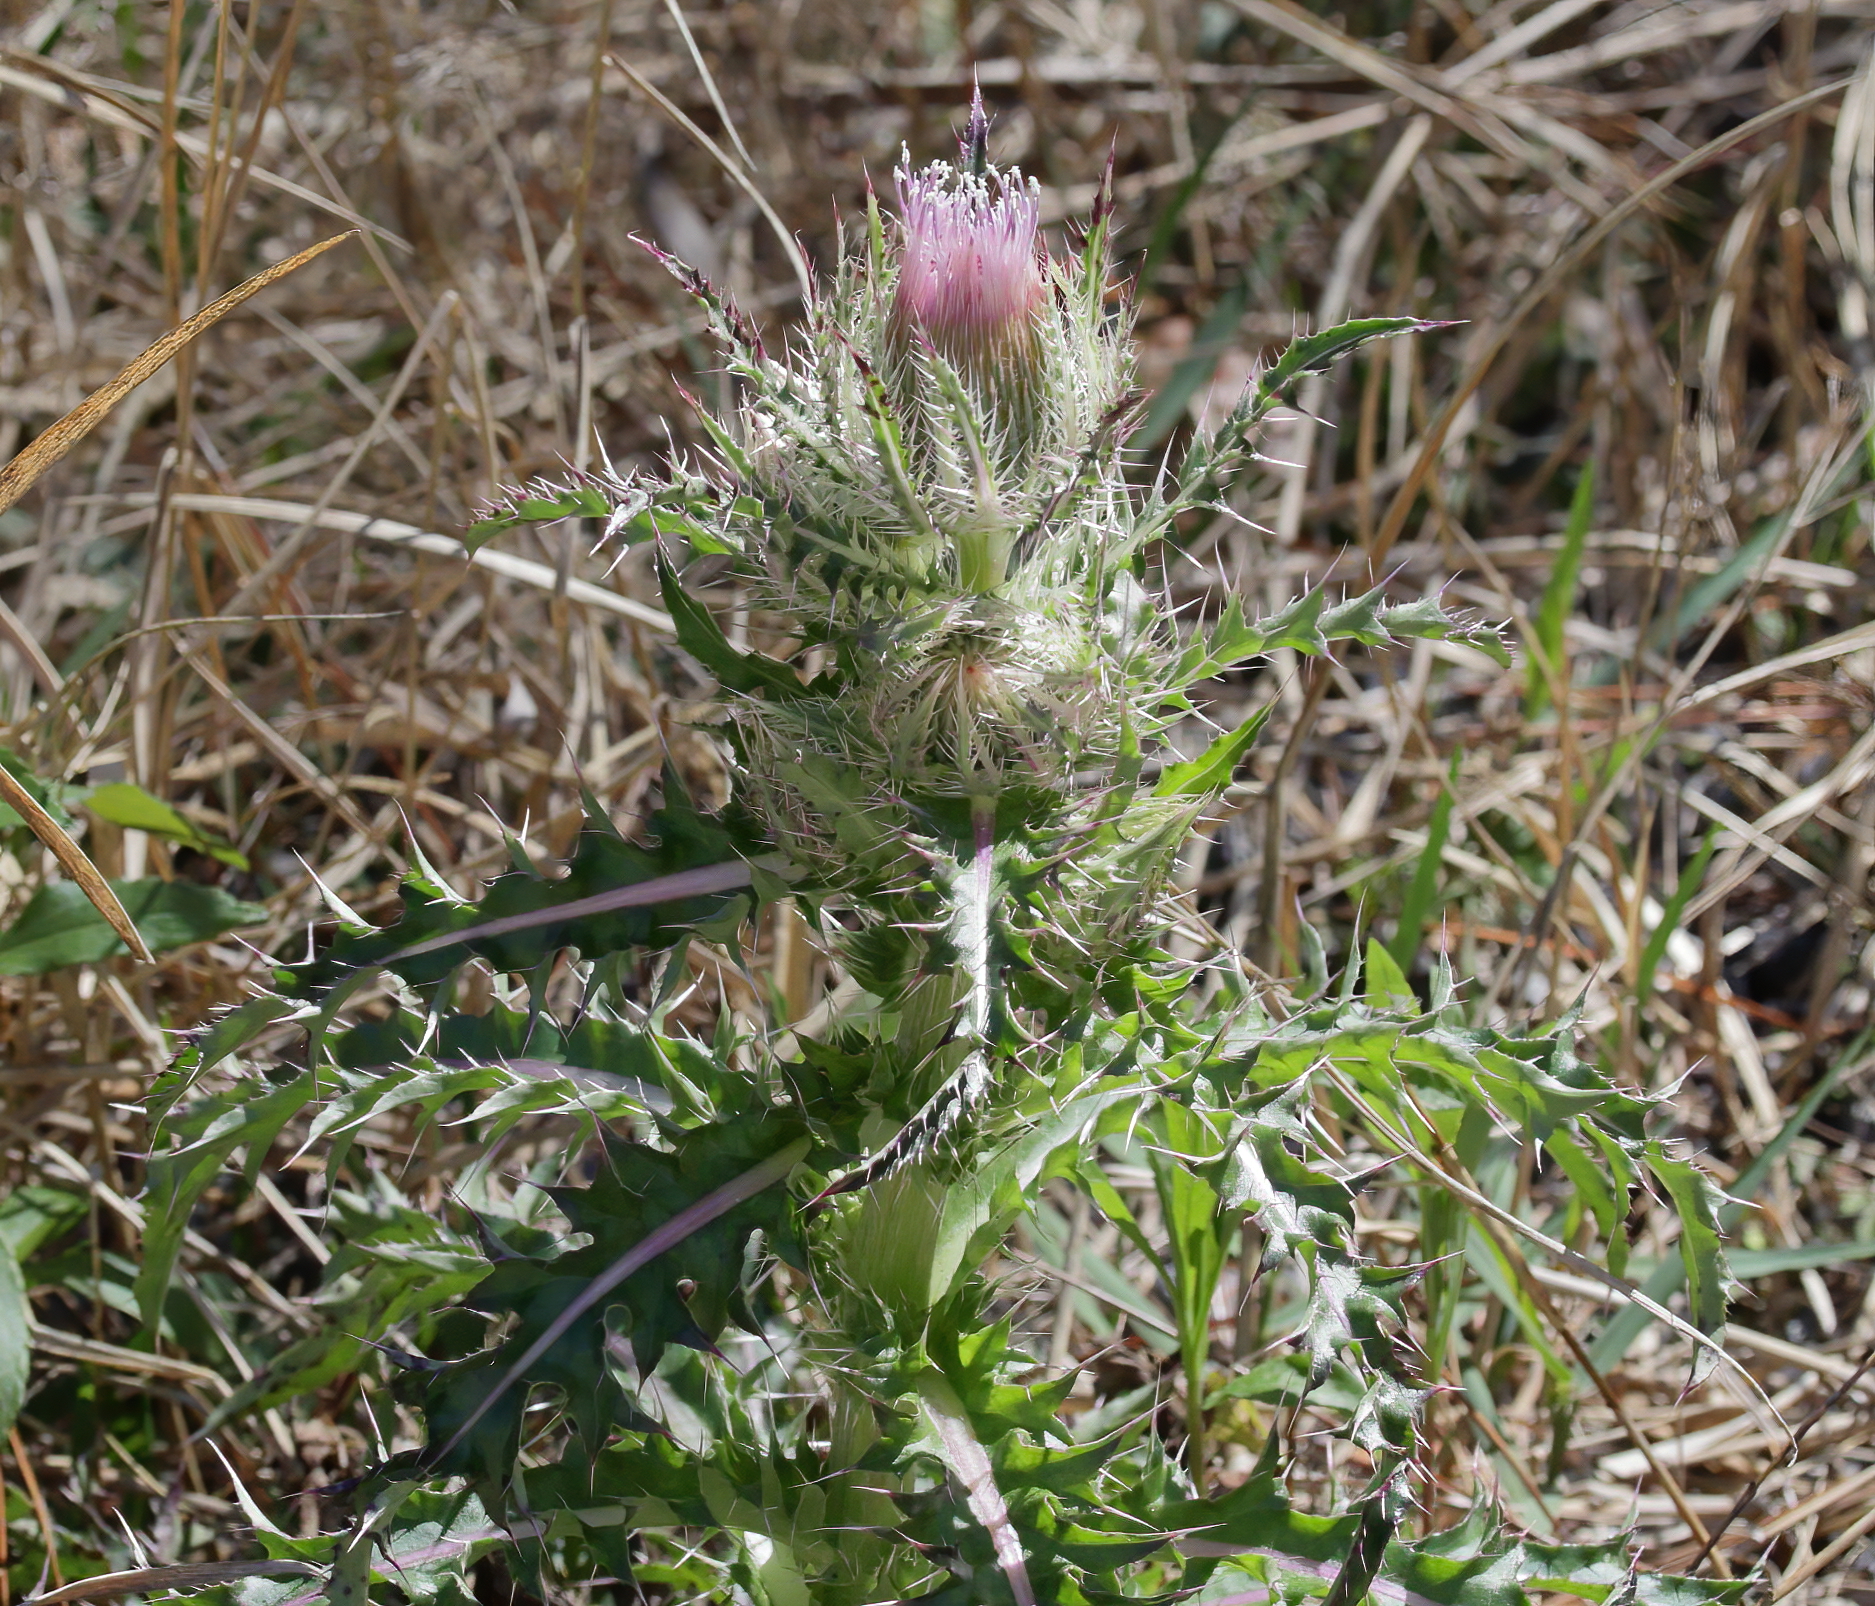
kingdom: Plantae
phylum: Tracheophyta
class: Magnoliopsida
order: Asterales
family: Asteraceae
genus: Cirsium
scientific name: Cirsium horridulum
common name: Bristly thistle
